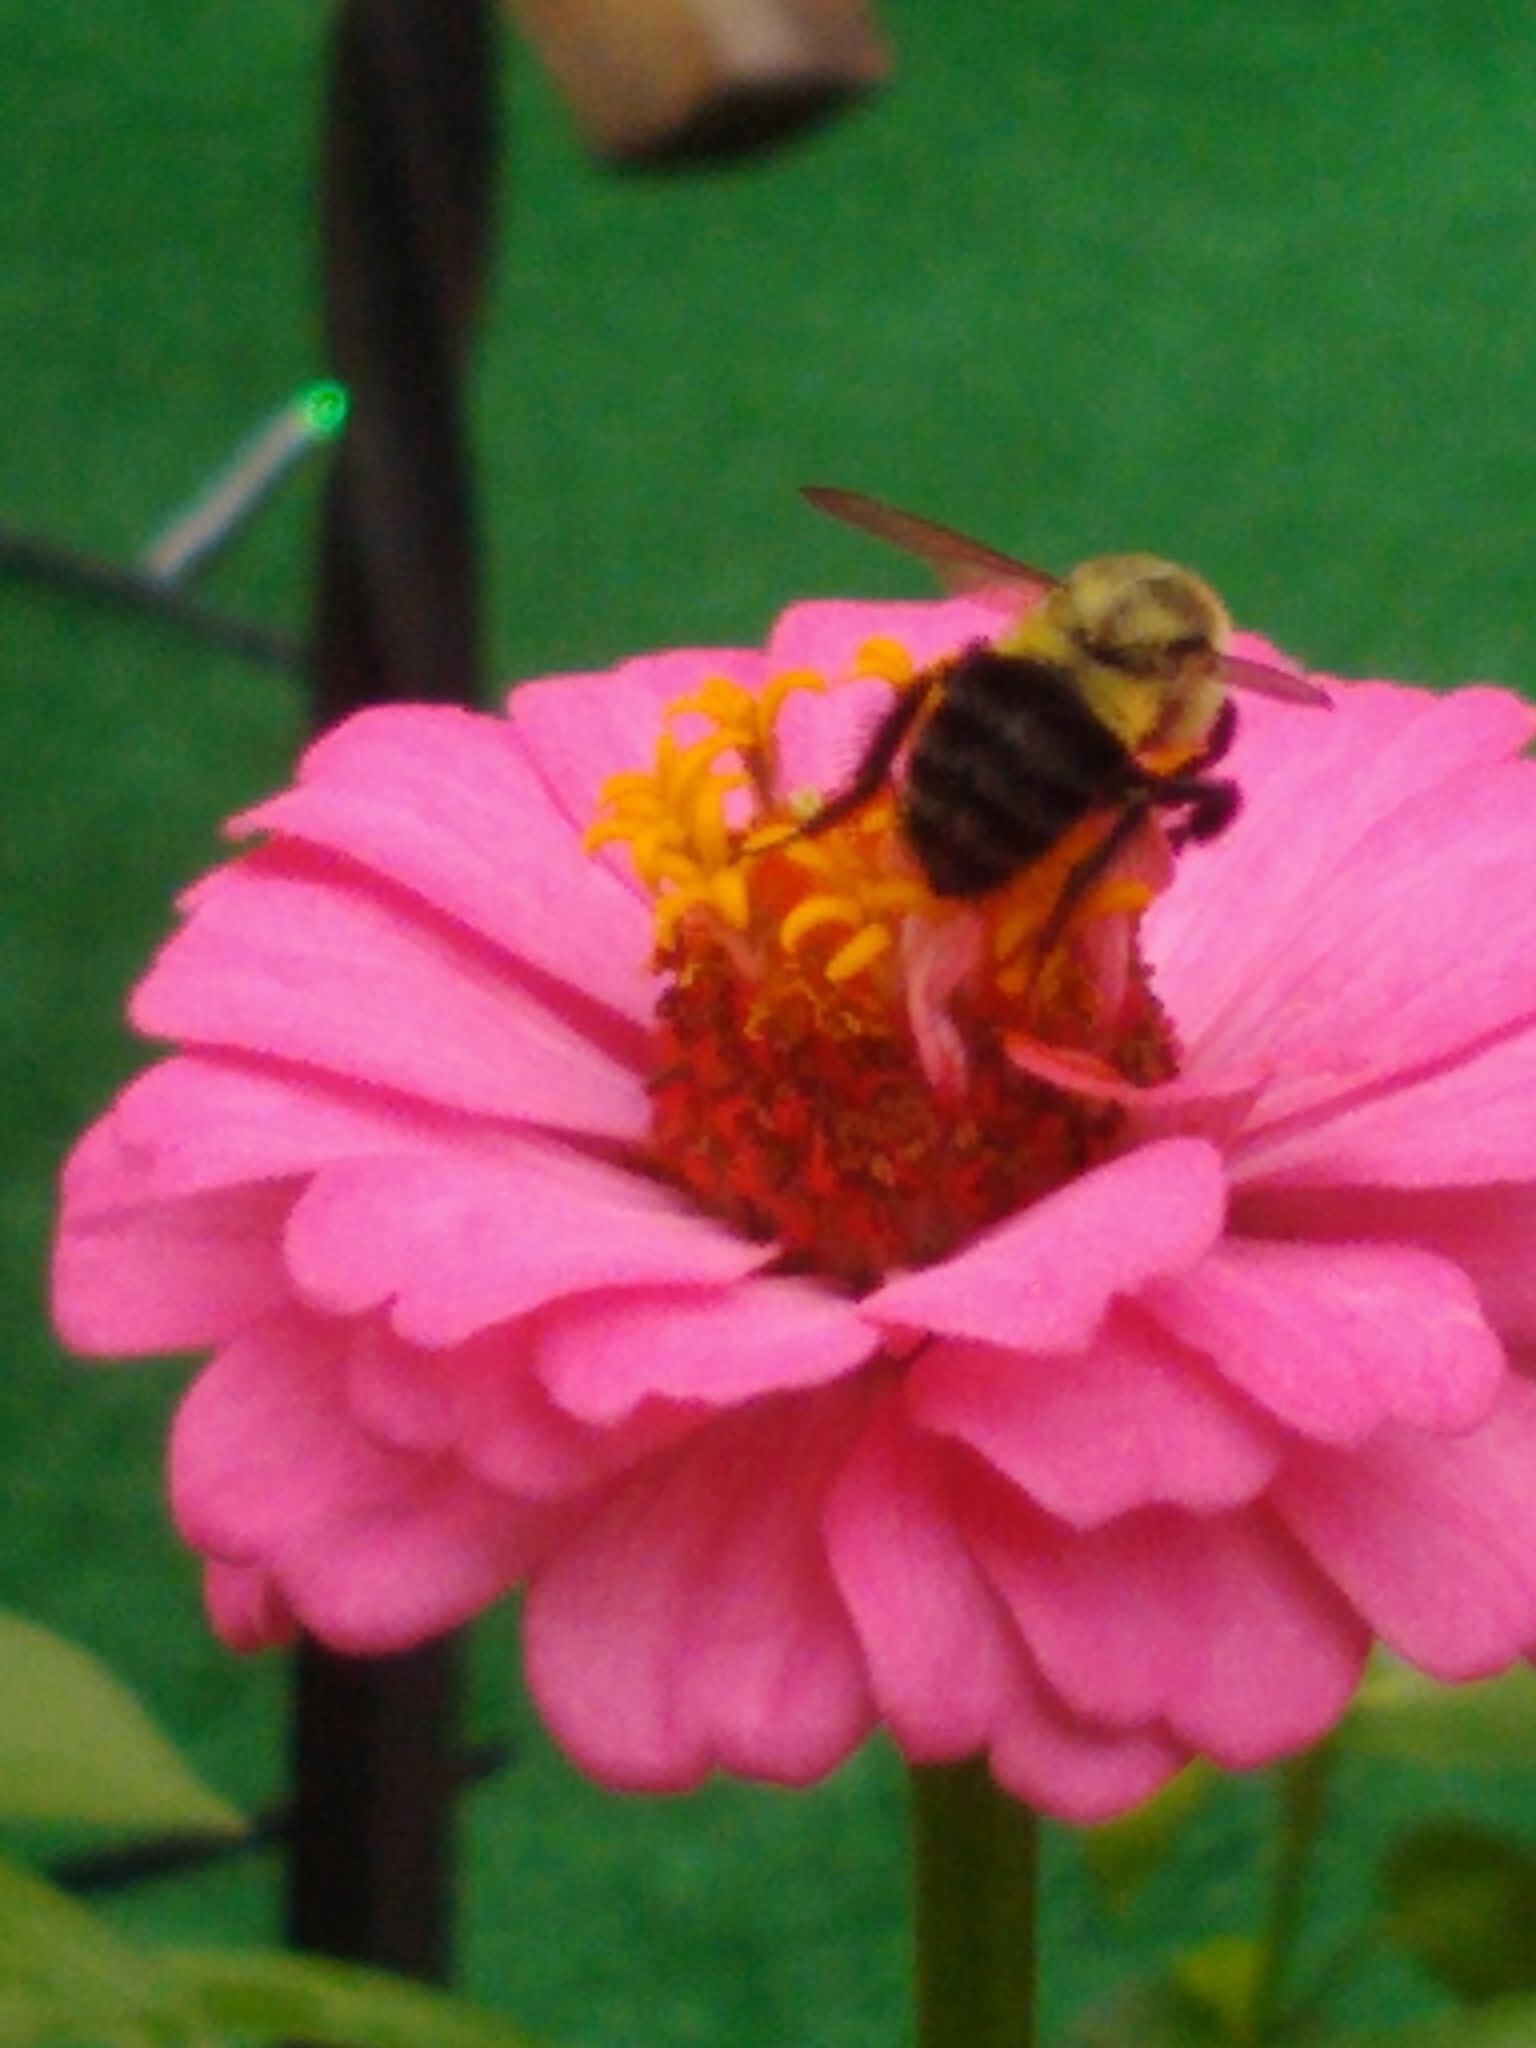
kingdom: Animalia
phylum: Arthropoda
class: Insecta
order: Hymenoptera
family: Apidae
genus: Bombus
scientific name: Bombus impatiens
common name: Common eastern bumble bee
